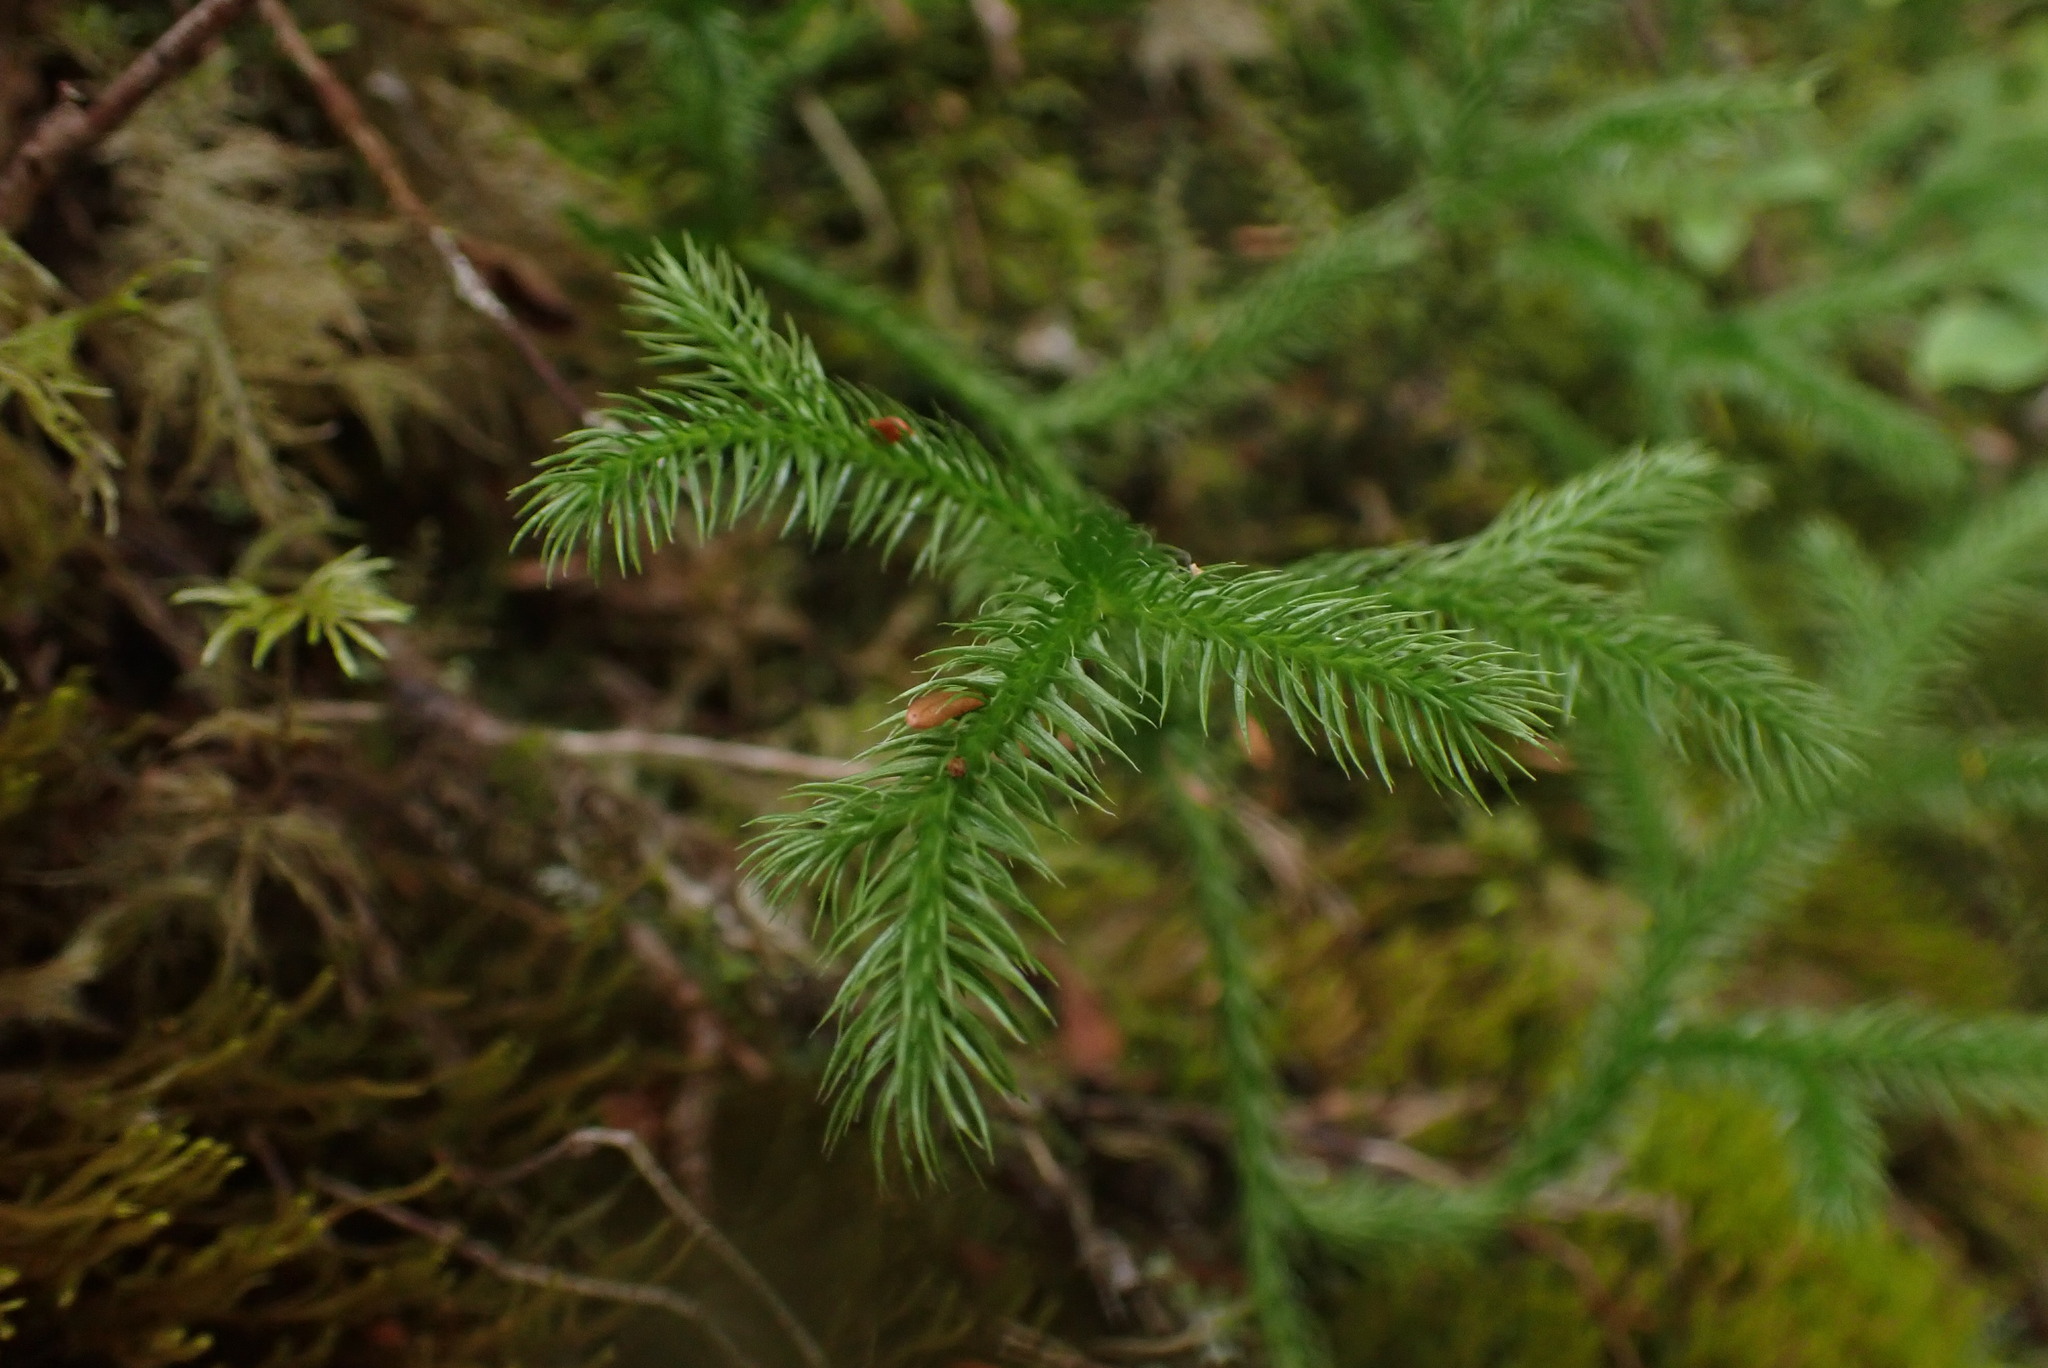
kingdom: Plantae
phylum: Tracheophyta
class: Lycopodiopsida
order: Lycopodiales
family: Lycopodiaceae
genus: Lycopodium
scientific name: Lycopodium clavatum
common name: Stag's-horn clubmoss
